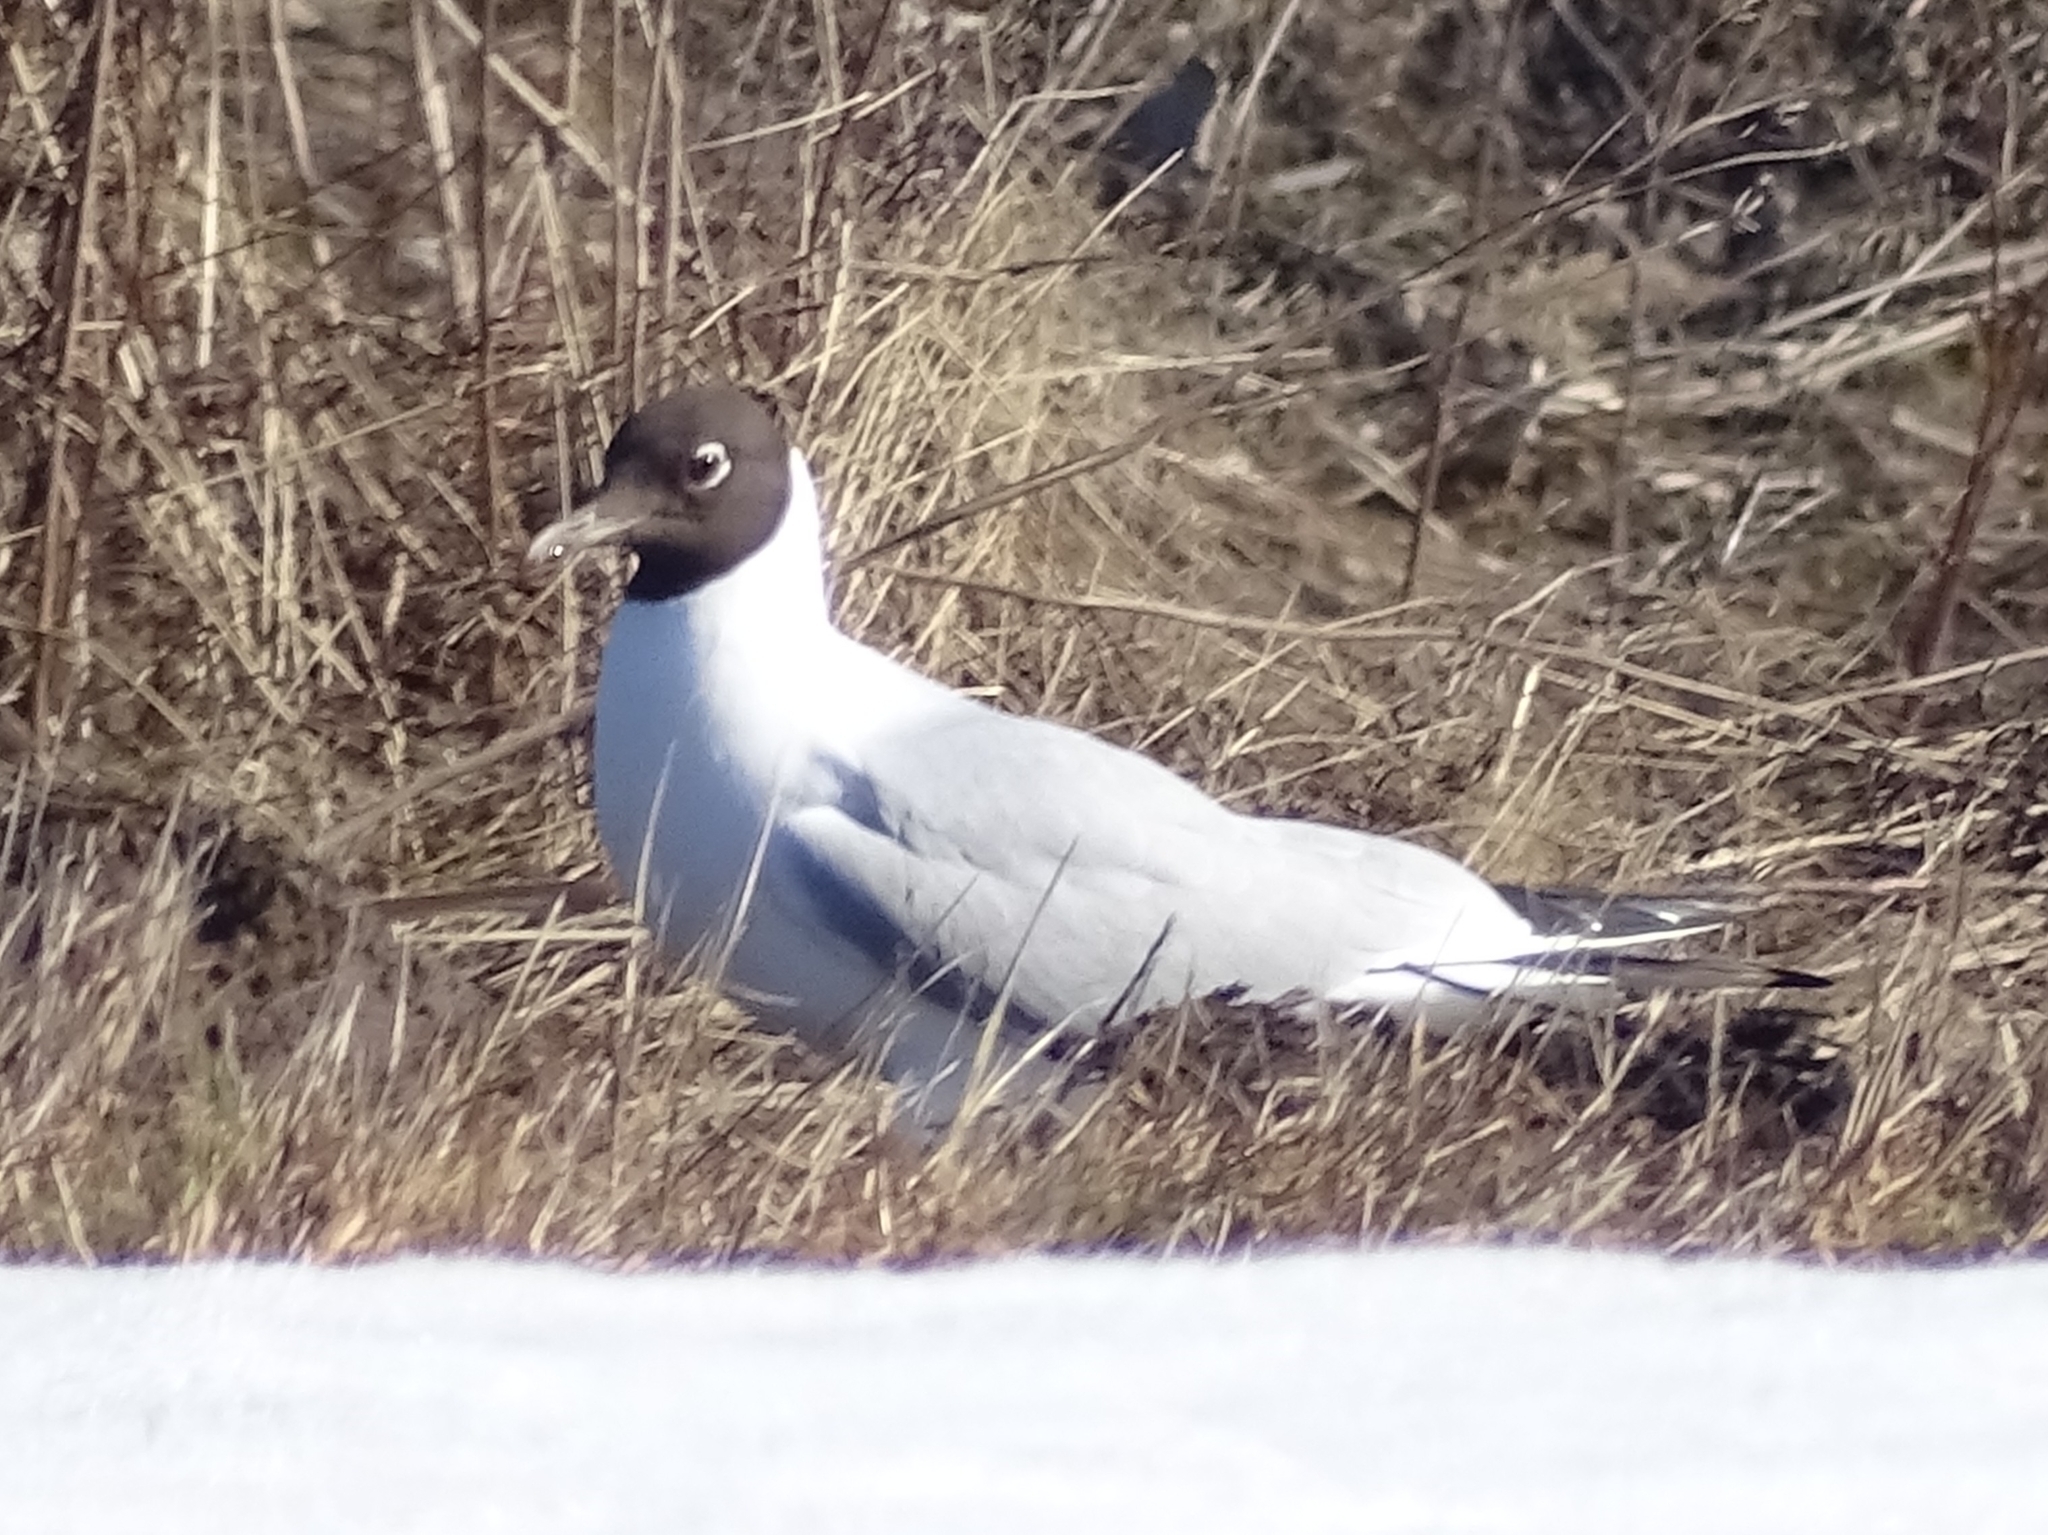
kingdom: Animalia
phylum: Chordata
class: Aves
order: Charadriiformes
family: Laridae
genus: Chroicocephalus
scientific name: Chroicocephalus ridibundus
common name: Black-headed gull
